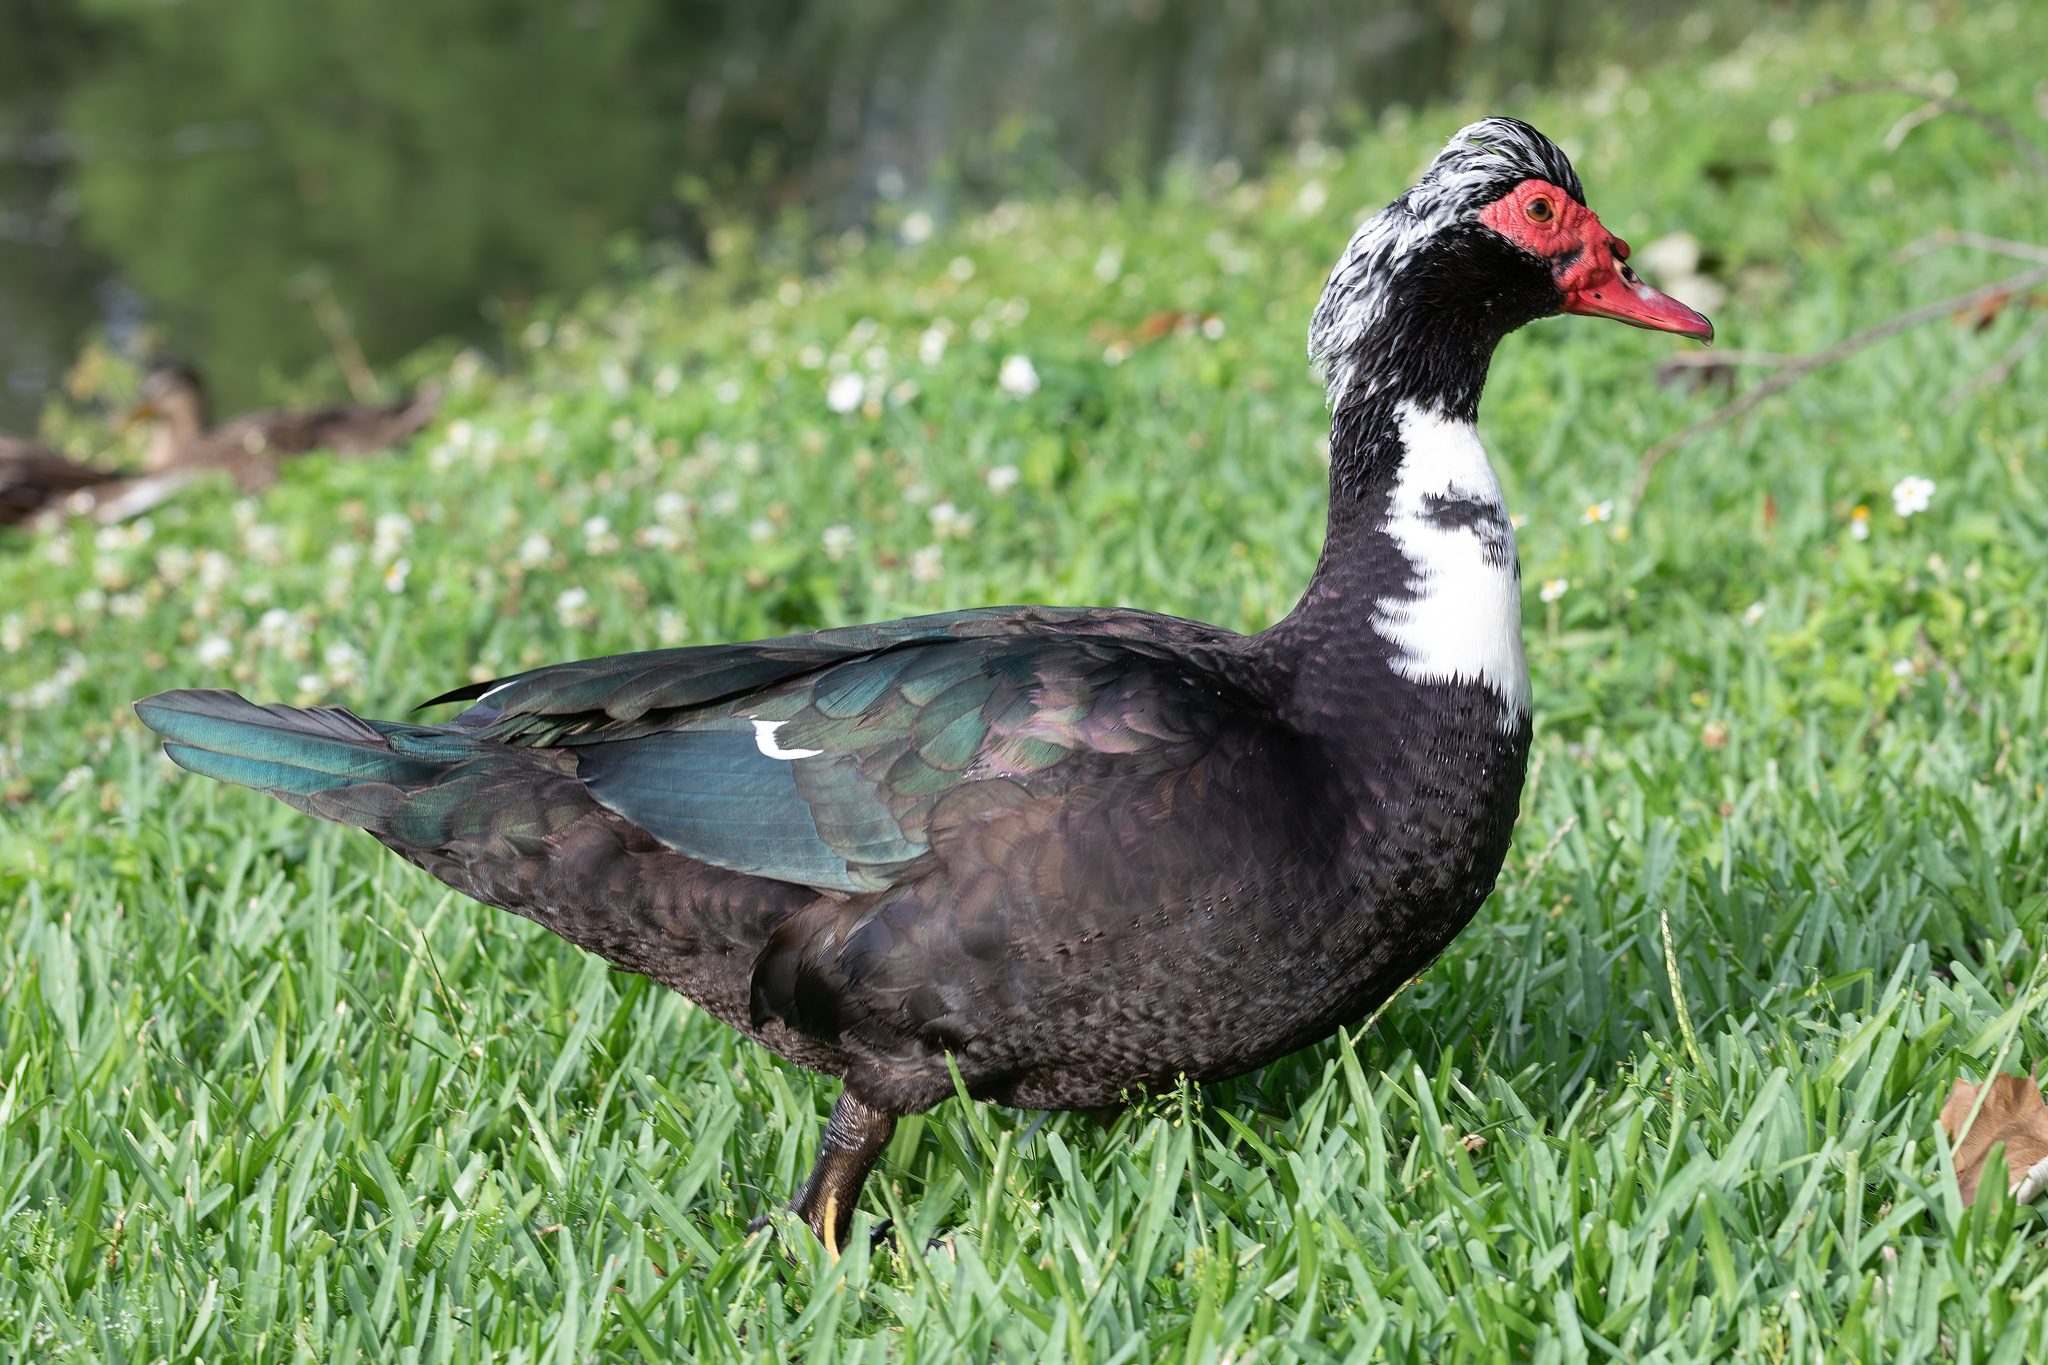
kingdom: Animalia
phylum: Chordata
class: Aves
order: Anseriformes
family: Anatidae
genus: Cairina
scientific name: Cairina moschata
